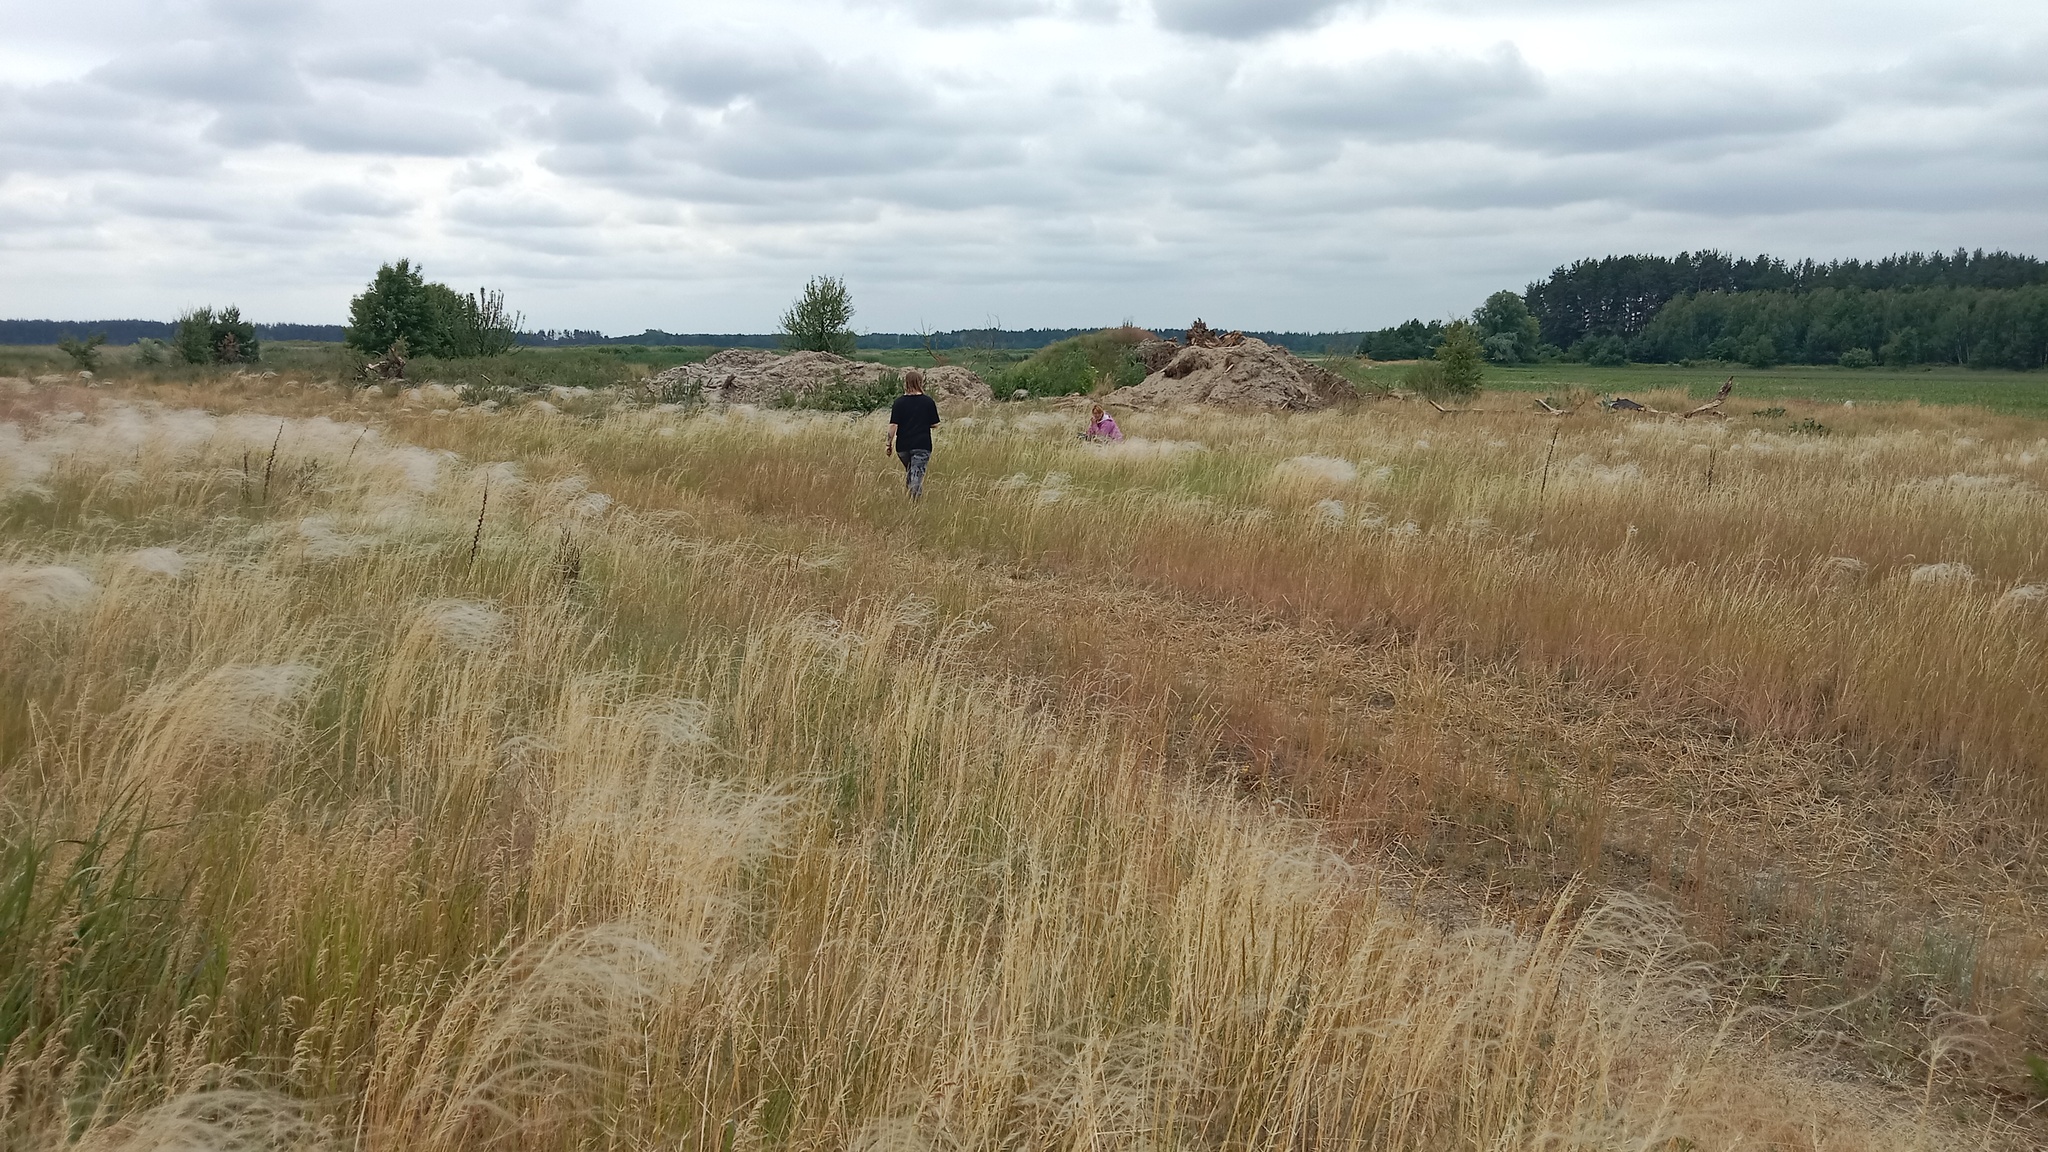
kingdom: Plantae
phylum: Tracheophyta
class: Liliopsida
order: Poales
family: Poaceae
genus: Stipa
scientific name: Stipa borysthenica
